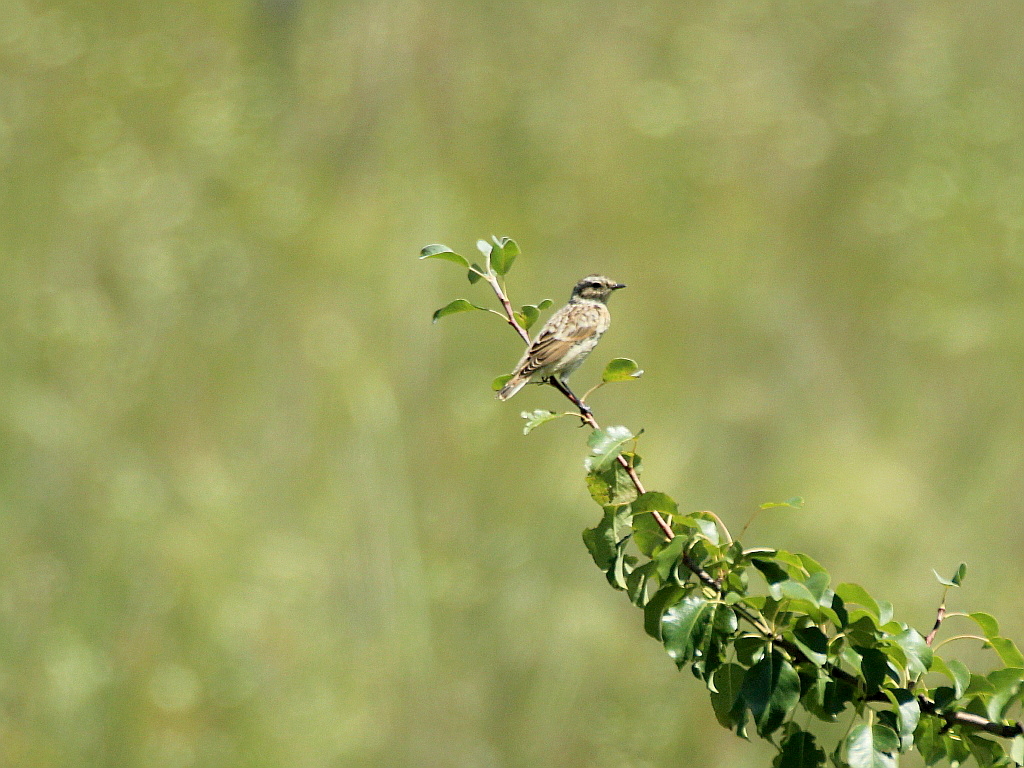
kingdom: Animalia
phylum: Chordata
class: Aves
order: Passeriformes
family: Muscicapidae
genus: Saxicola
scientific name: Saxicola rubetra
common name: Whinchat
